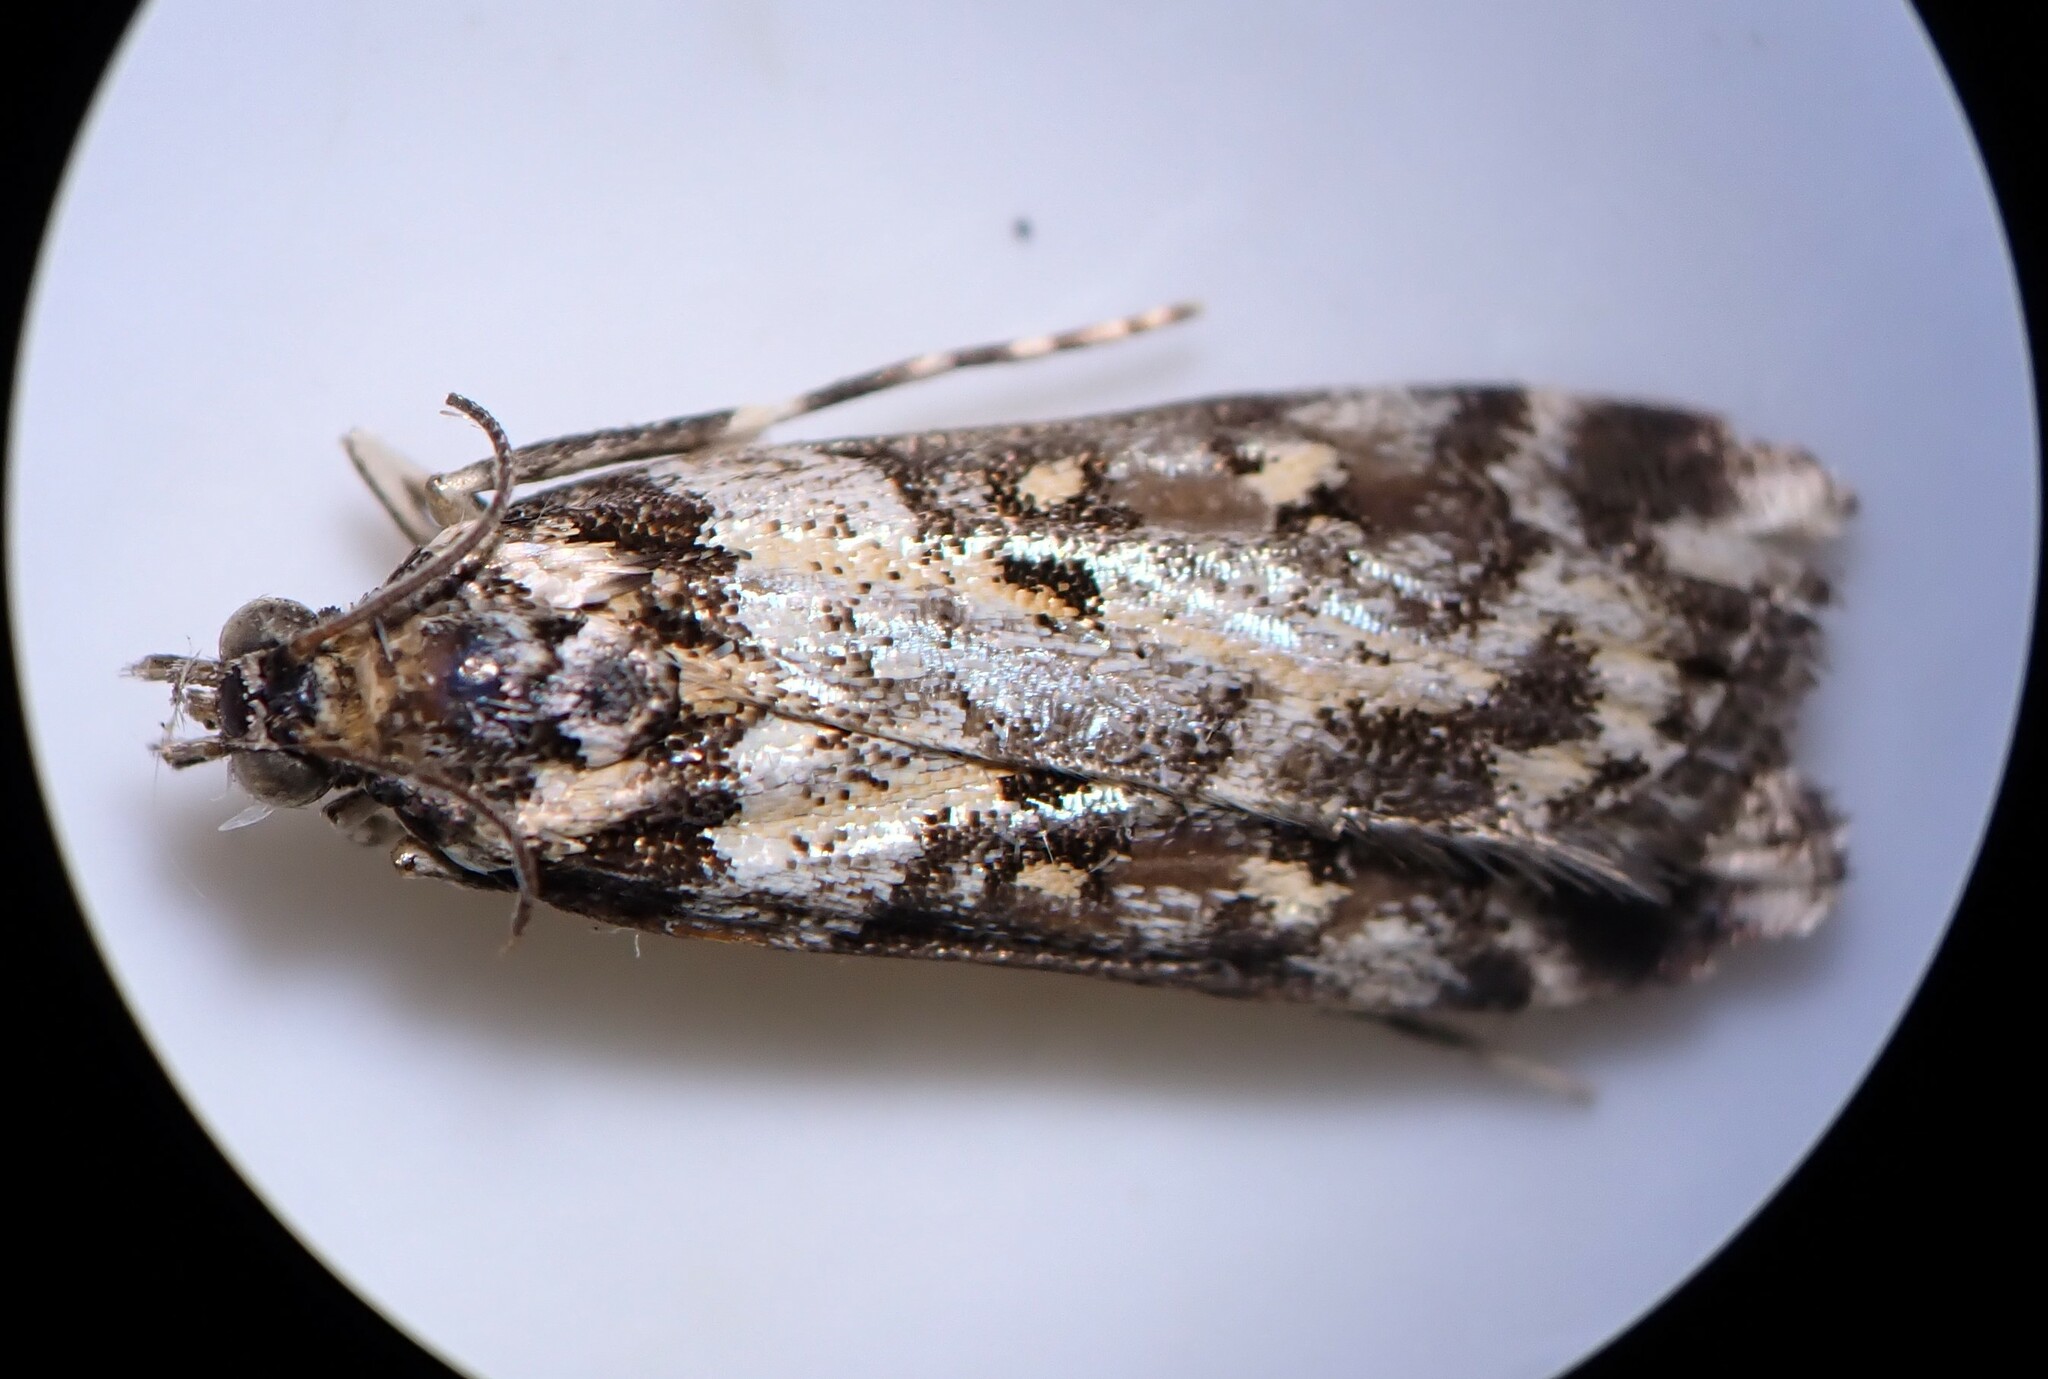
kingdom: Animalia
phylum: Arthropoda
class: Insecta
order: Lepidoptera
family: Crambidae
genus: Eudonia
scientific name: Eudonia diphtheralis
